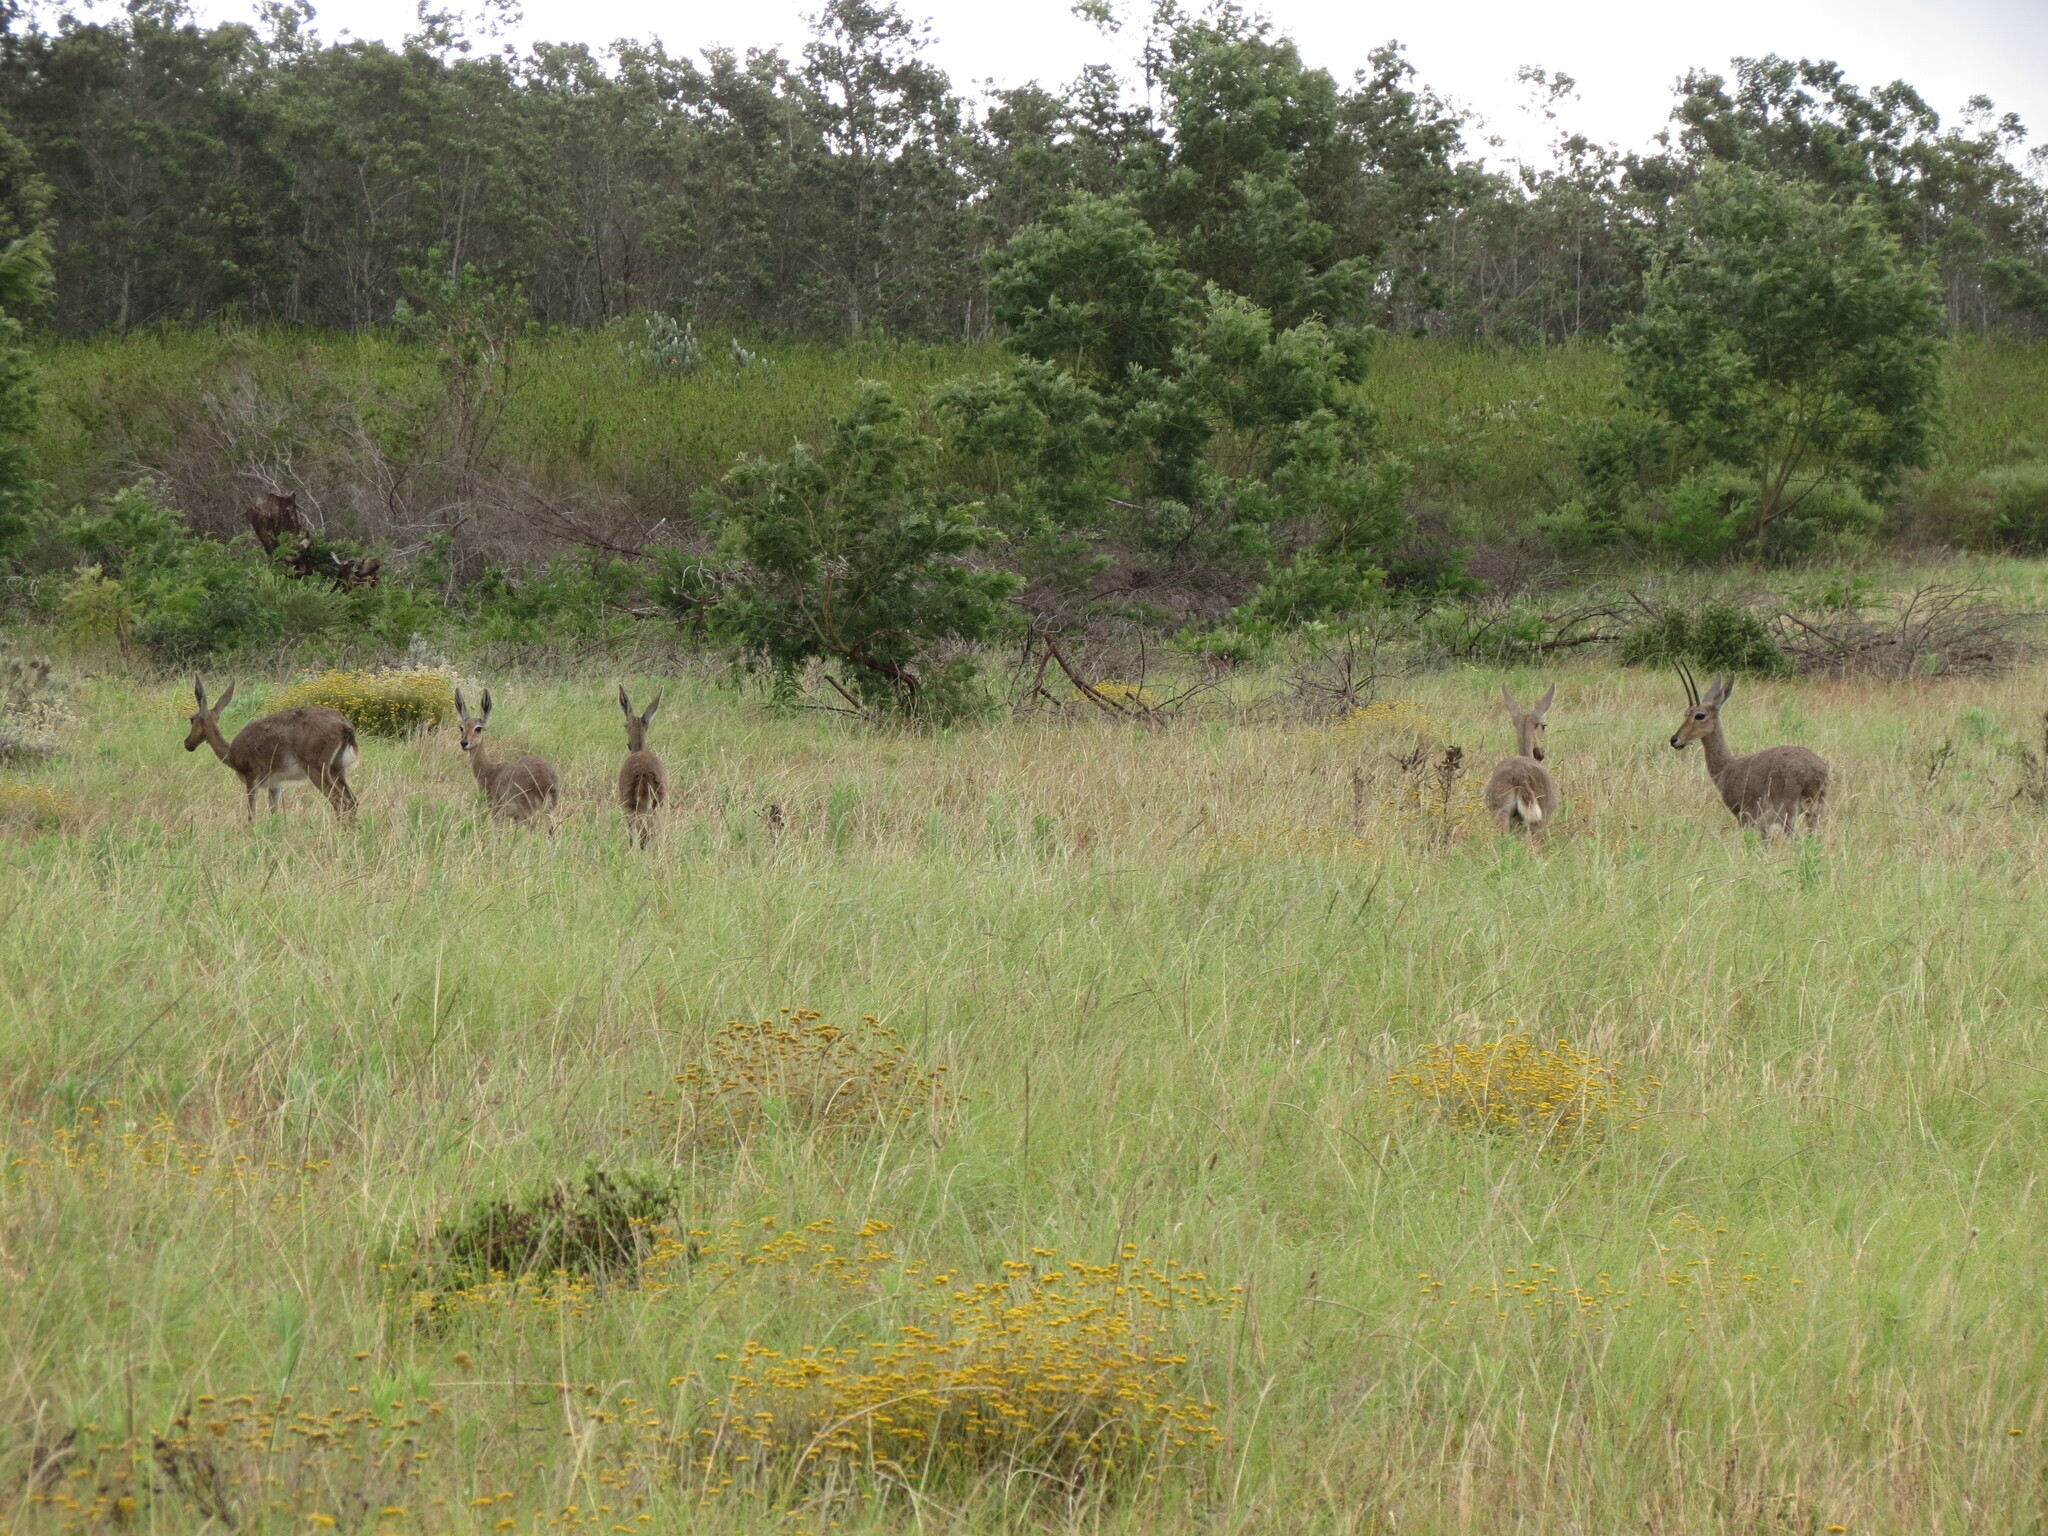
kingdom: Animalia
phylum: Chordata
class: Mammalia
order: Artiodactyla
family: Bovidae
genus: Pelea
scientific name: Pelea capreolus
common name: Common rhebok
